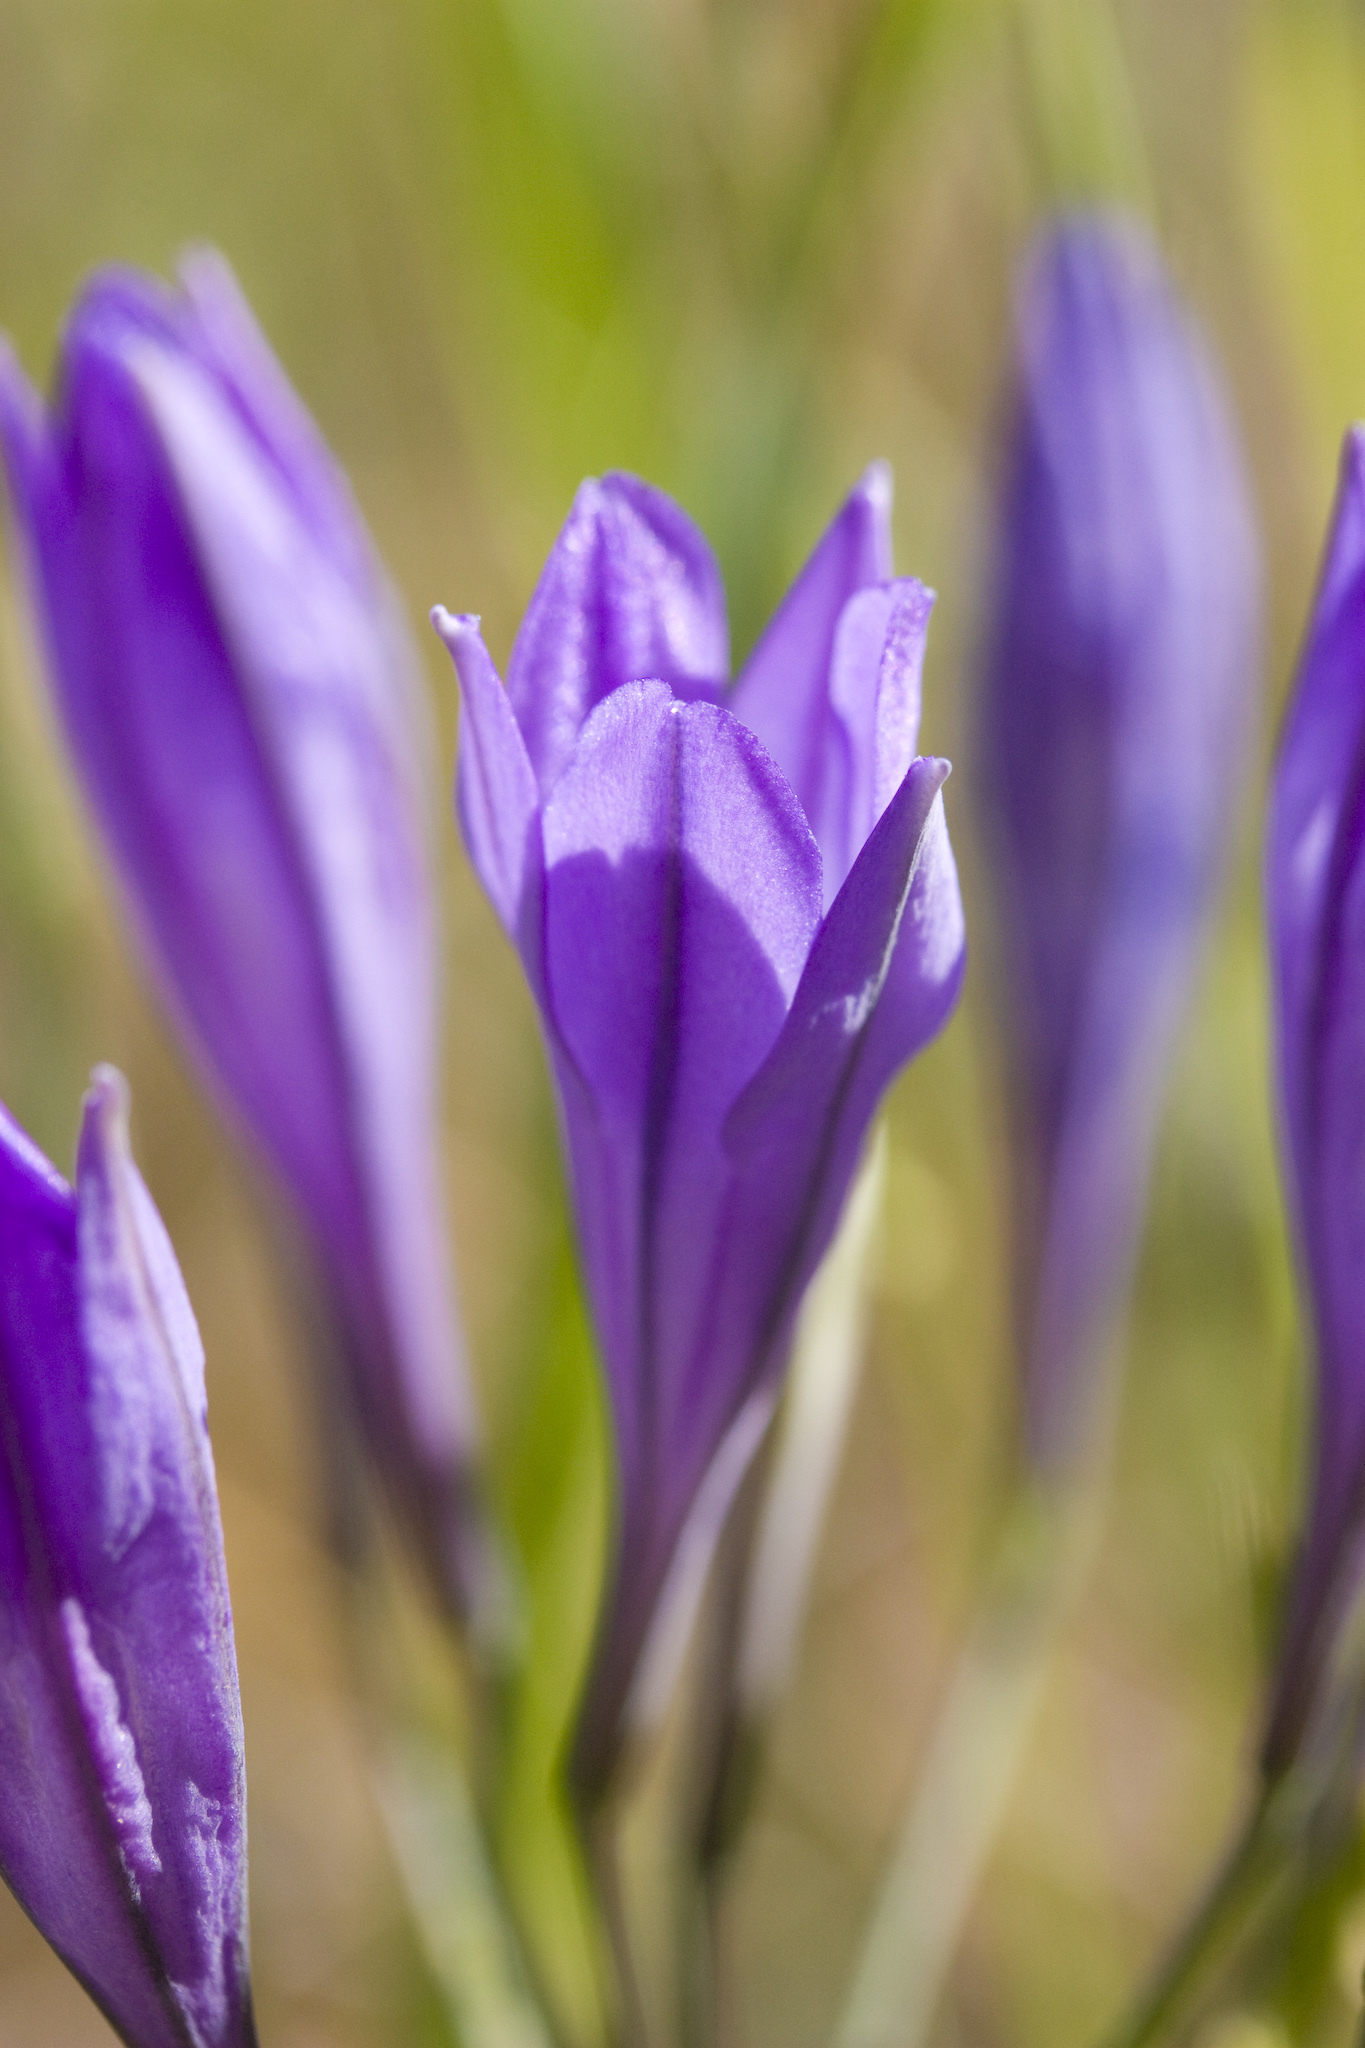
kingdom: Plantae
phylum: Tracheophyta
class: Liliopsida
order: Asparagales
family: Asparagaceae
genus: Triteleia
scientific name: Triteleia laxa
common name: Triplet-lily
